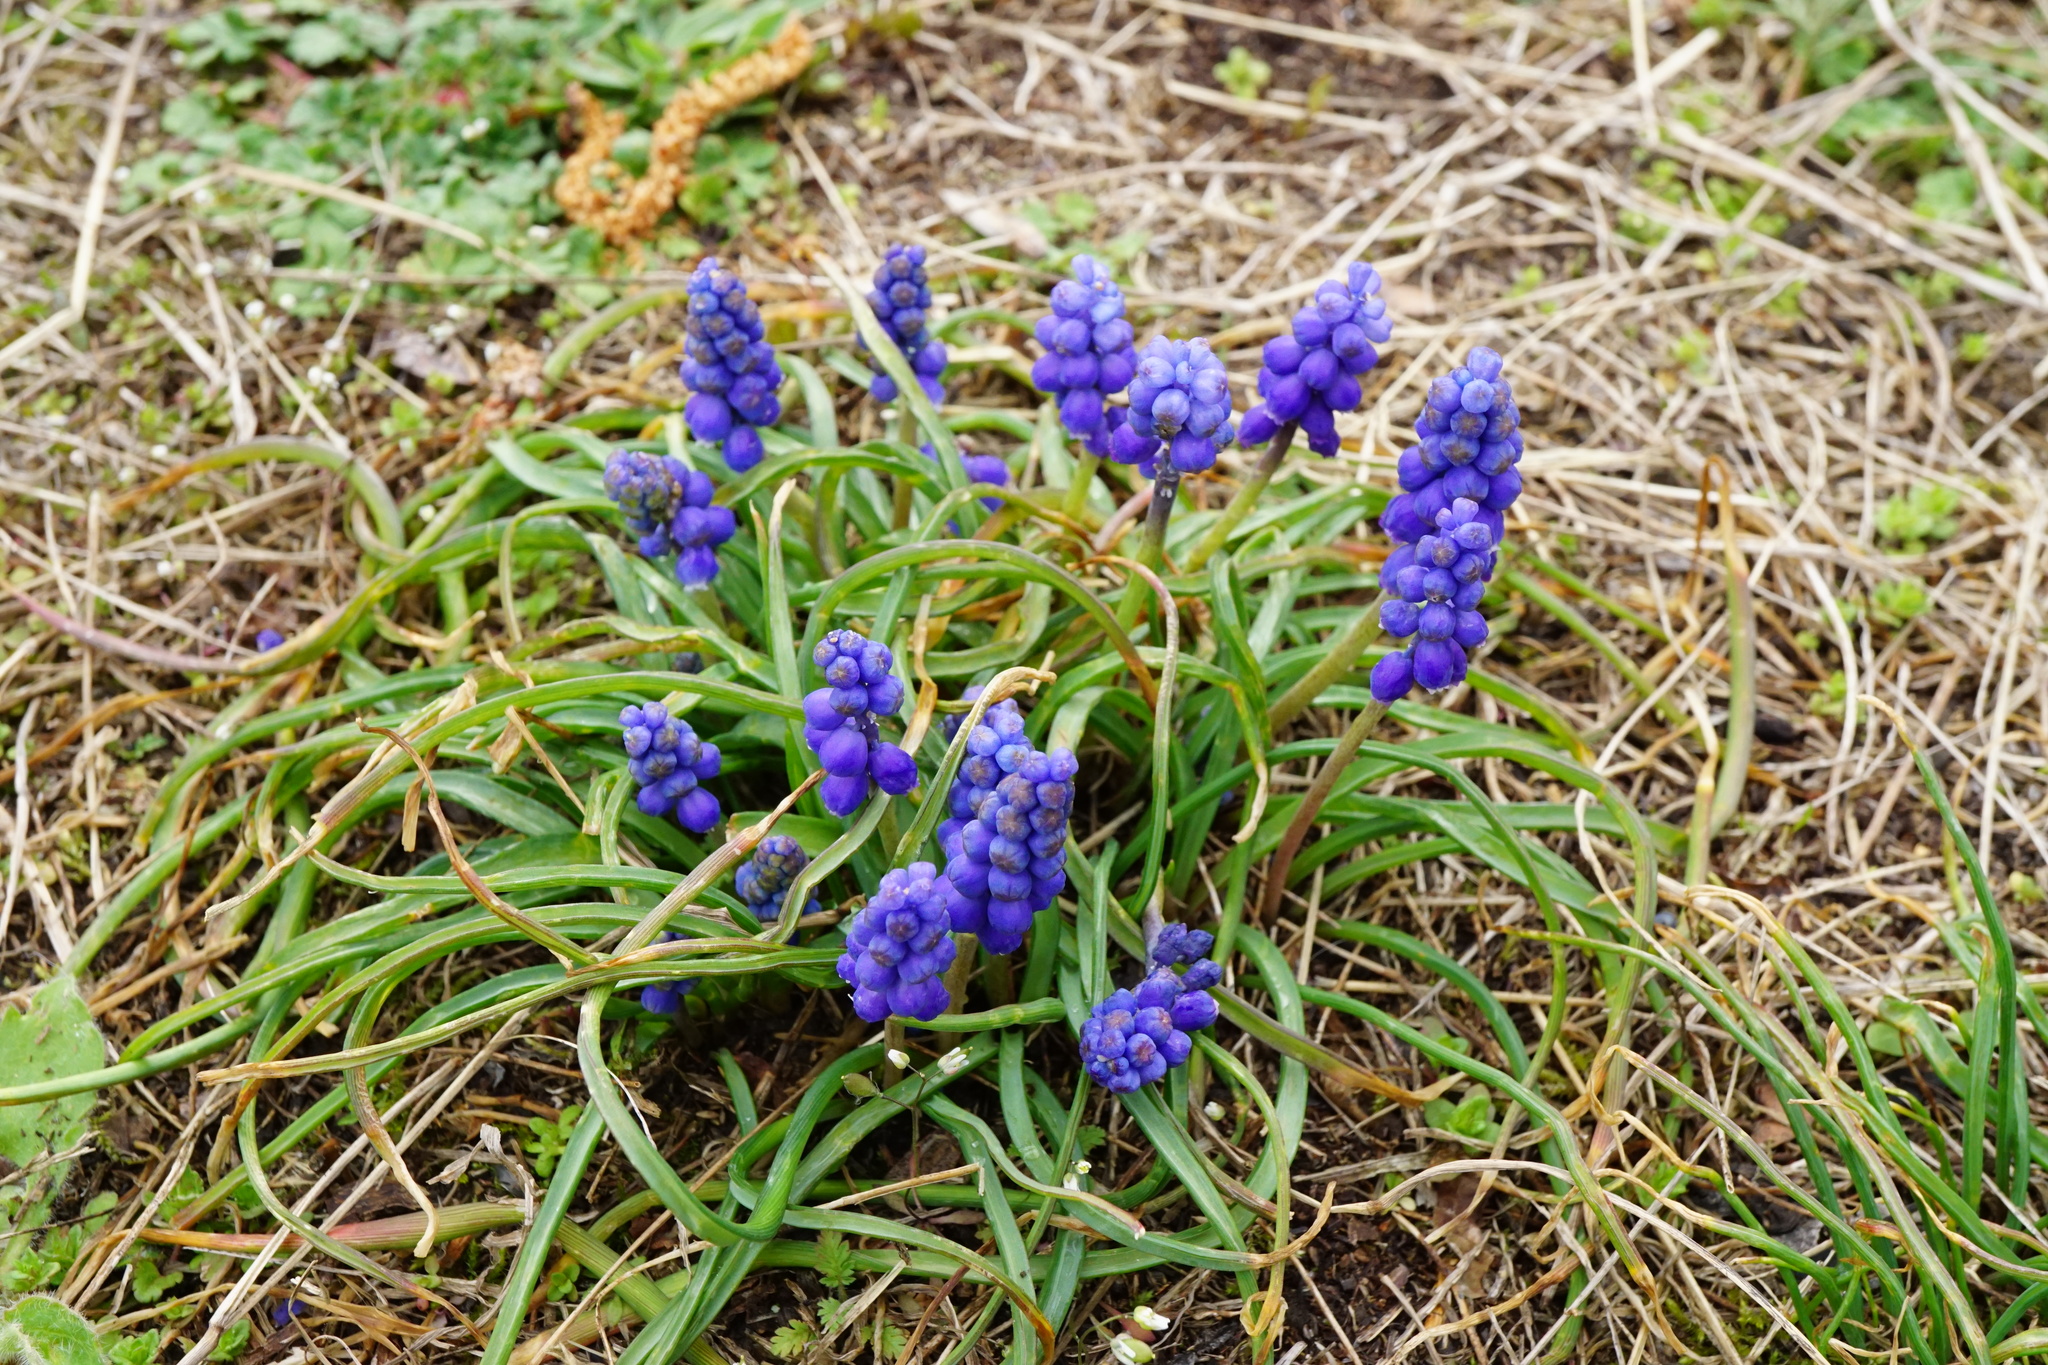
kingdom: Plantae
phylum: Tracheophyta
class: Liliopsida
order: Asparagales
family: Asparagaceae
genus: Muscari
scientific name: Muscari armeniacum
